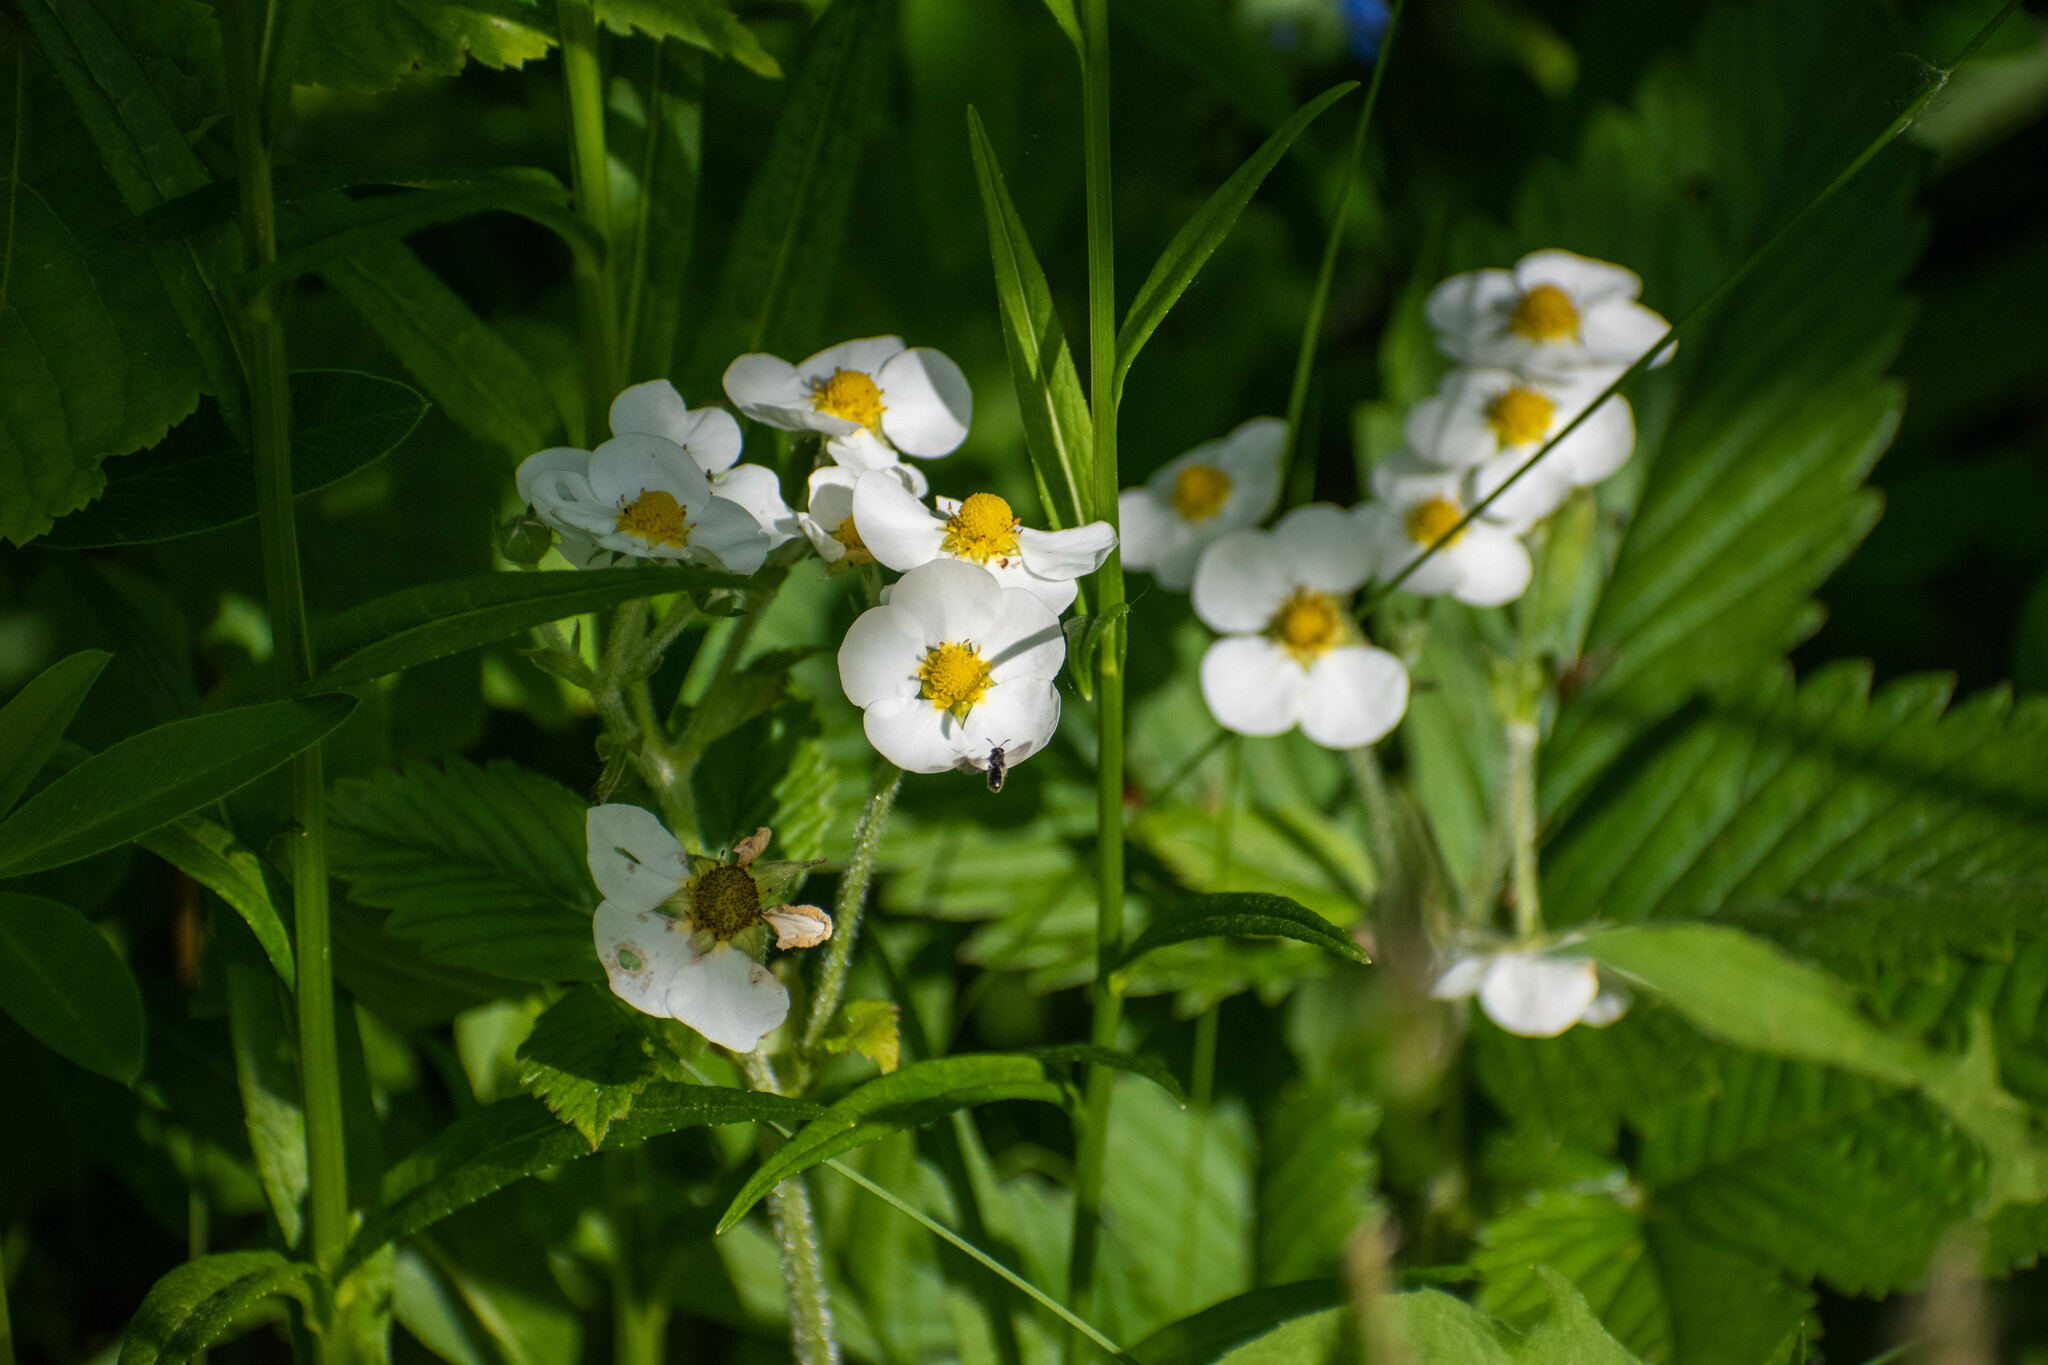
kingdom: Plantae
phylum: Tracheophyta
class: Magnoliopsida
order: Rosales
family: Rosaceae
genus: Fragaria
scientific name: Fragaria moschata
